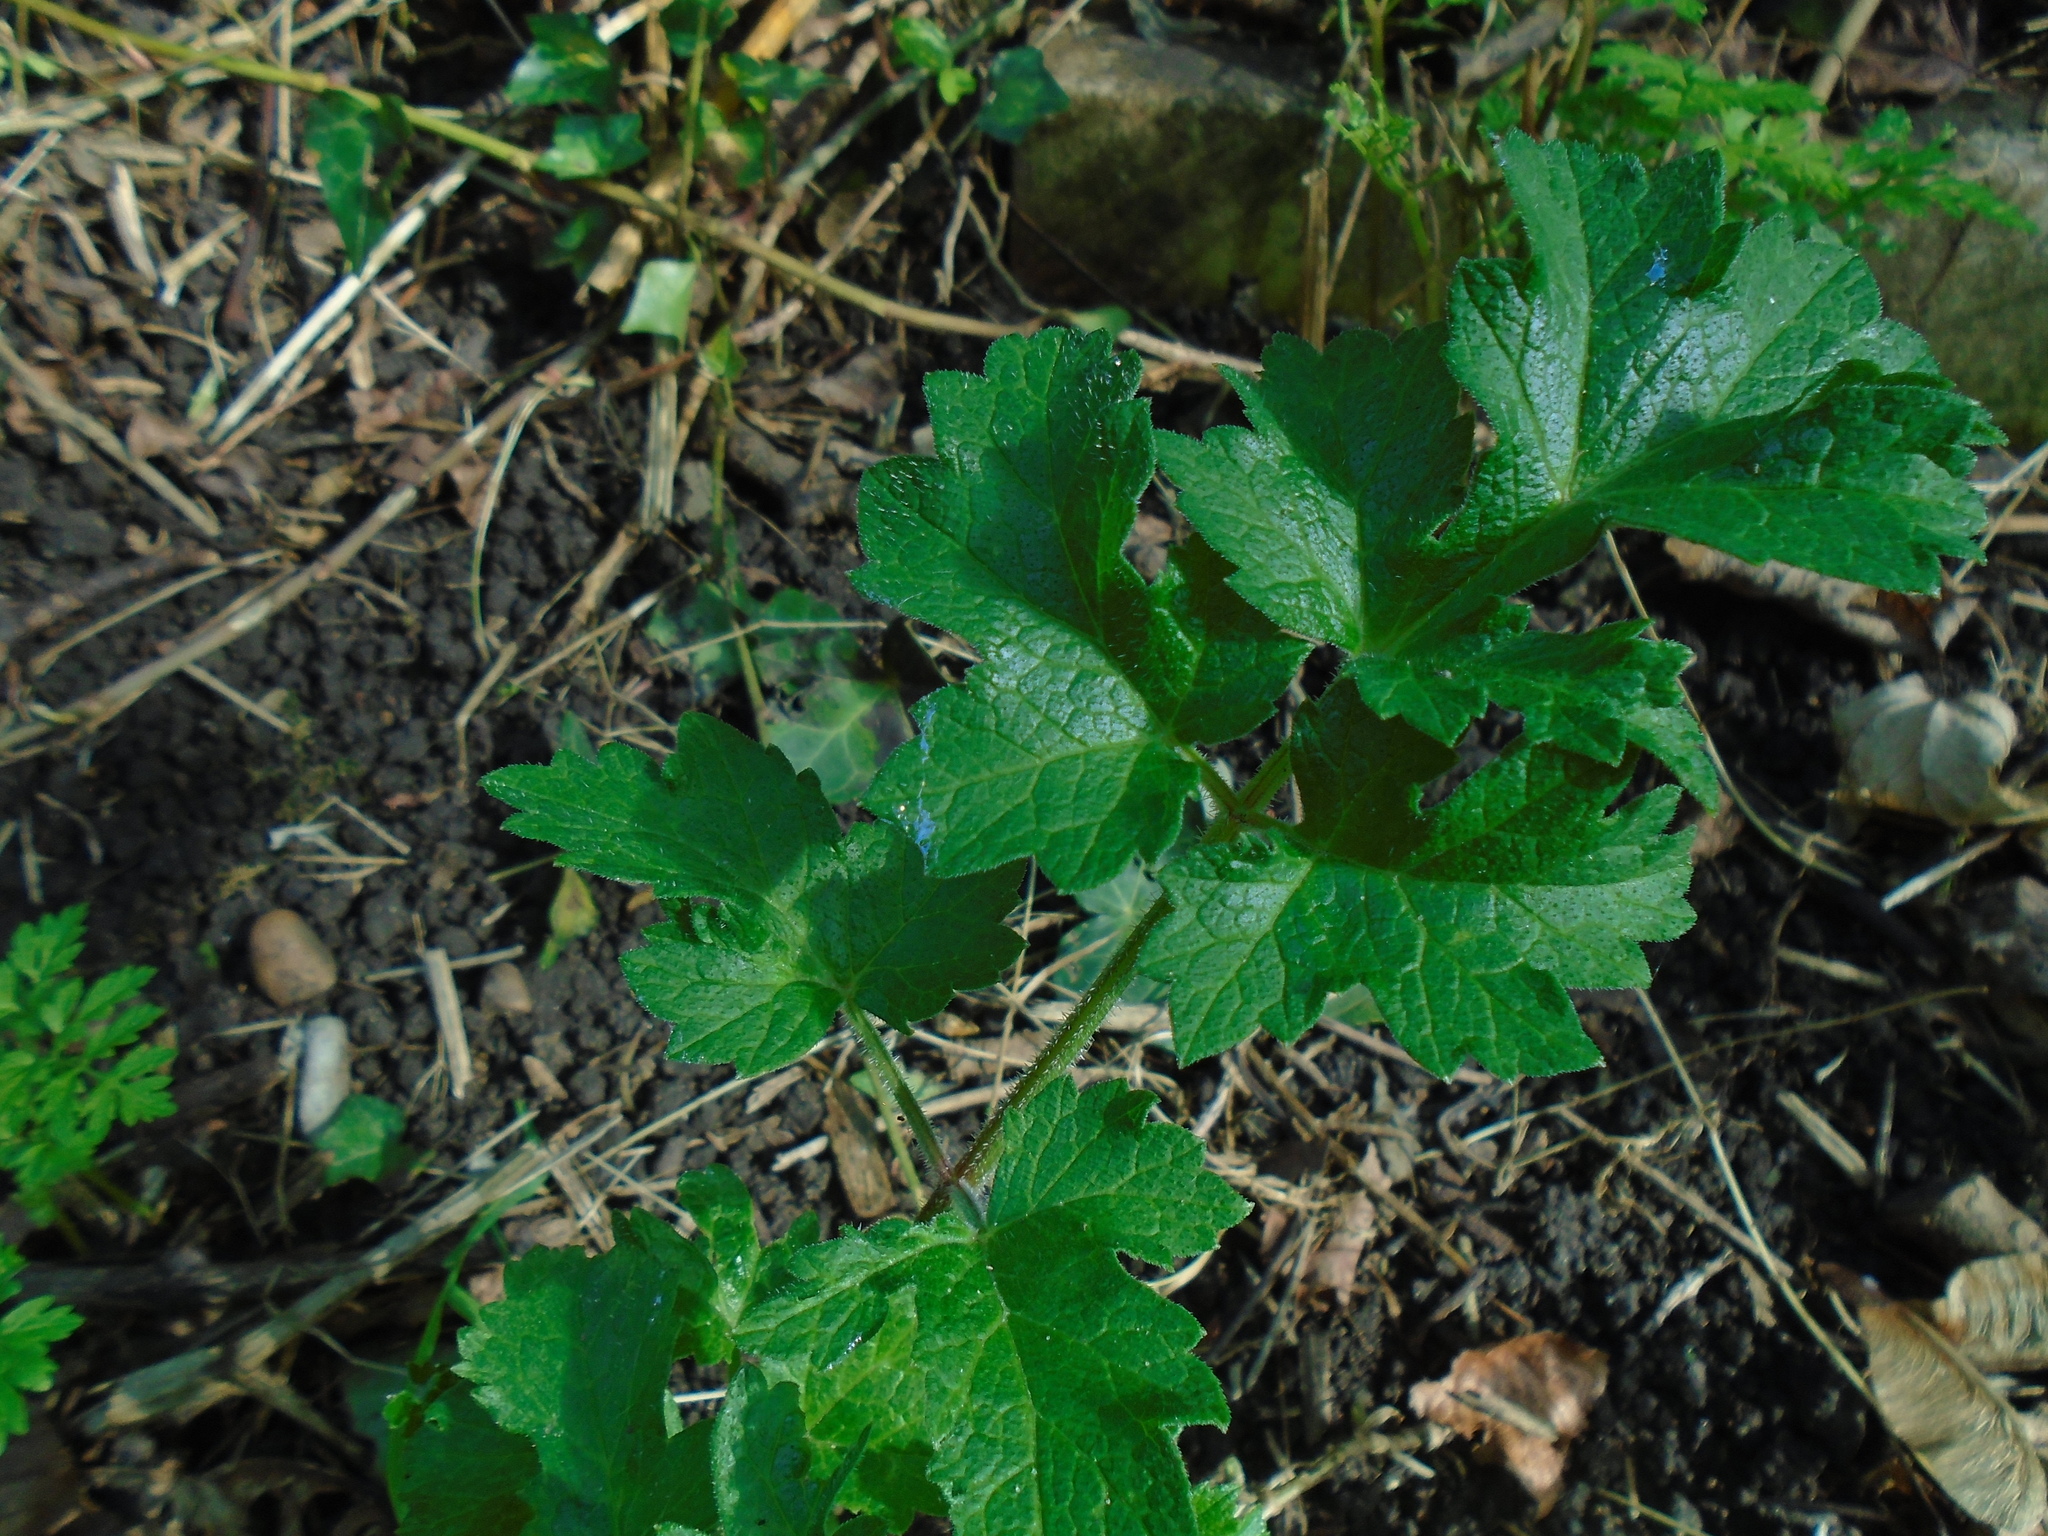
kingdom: Plantae
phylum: Tracheophyta
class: Magnoliopsida
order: Apiales
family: Apiaceae
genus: Heracleum
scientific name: Heracleum sphondylium
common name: Hogweed
